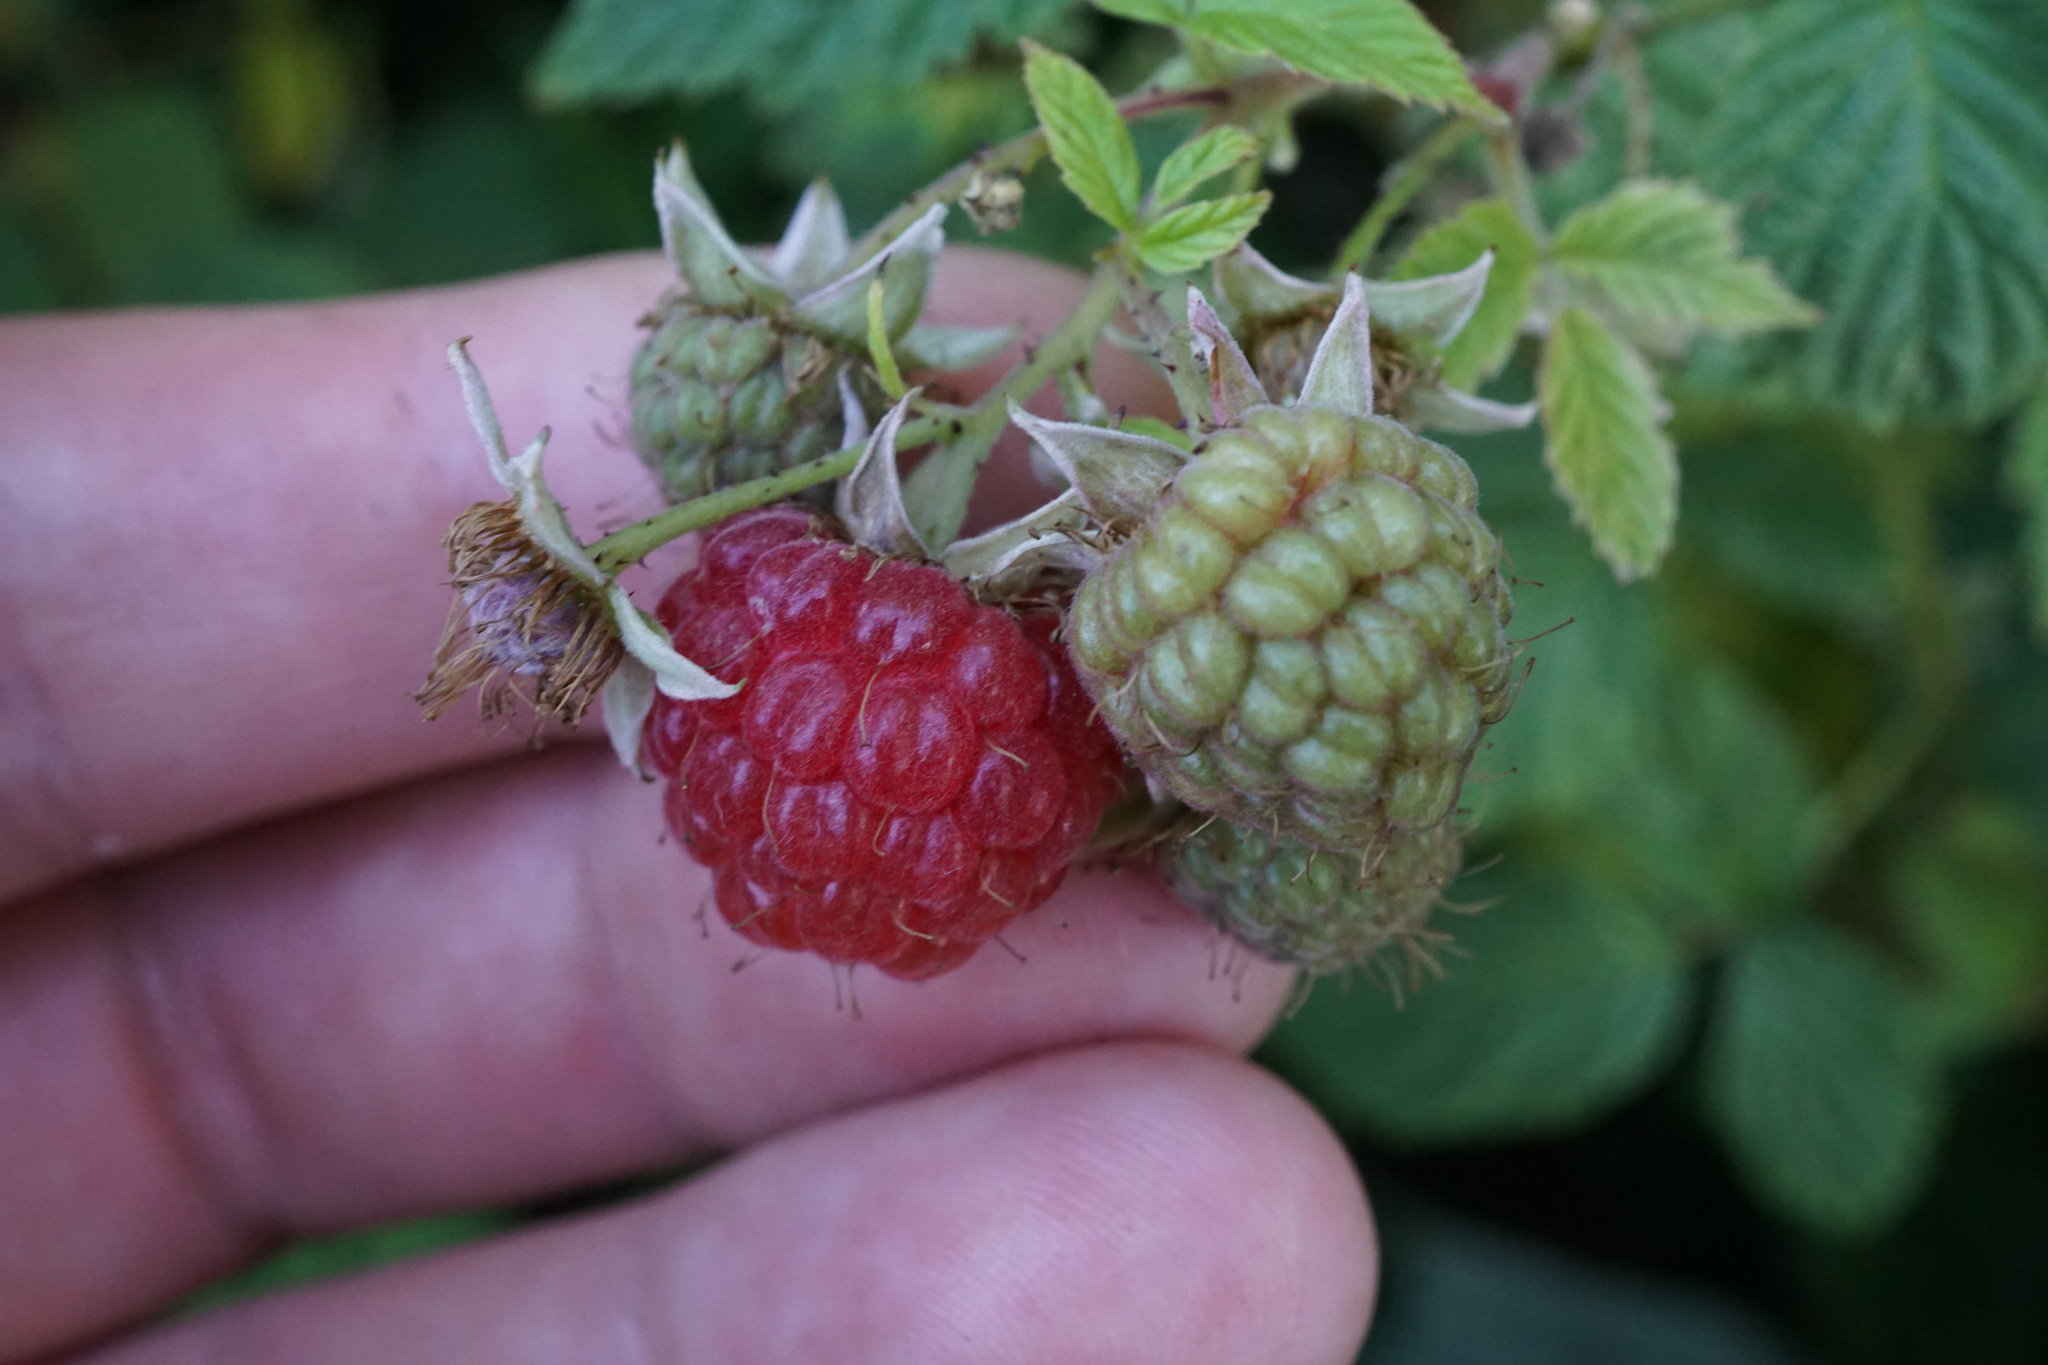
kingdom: Plantae
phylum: Tracheophyta
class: Magnoliopsida
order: Rosales
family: Rosaceae
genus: Rubus
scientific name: Rubus idaeus
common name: Raspberry
